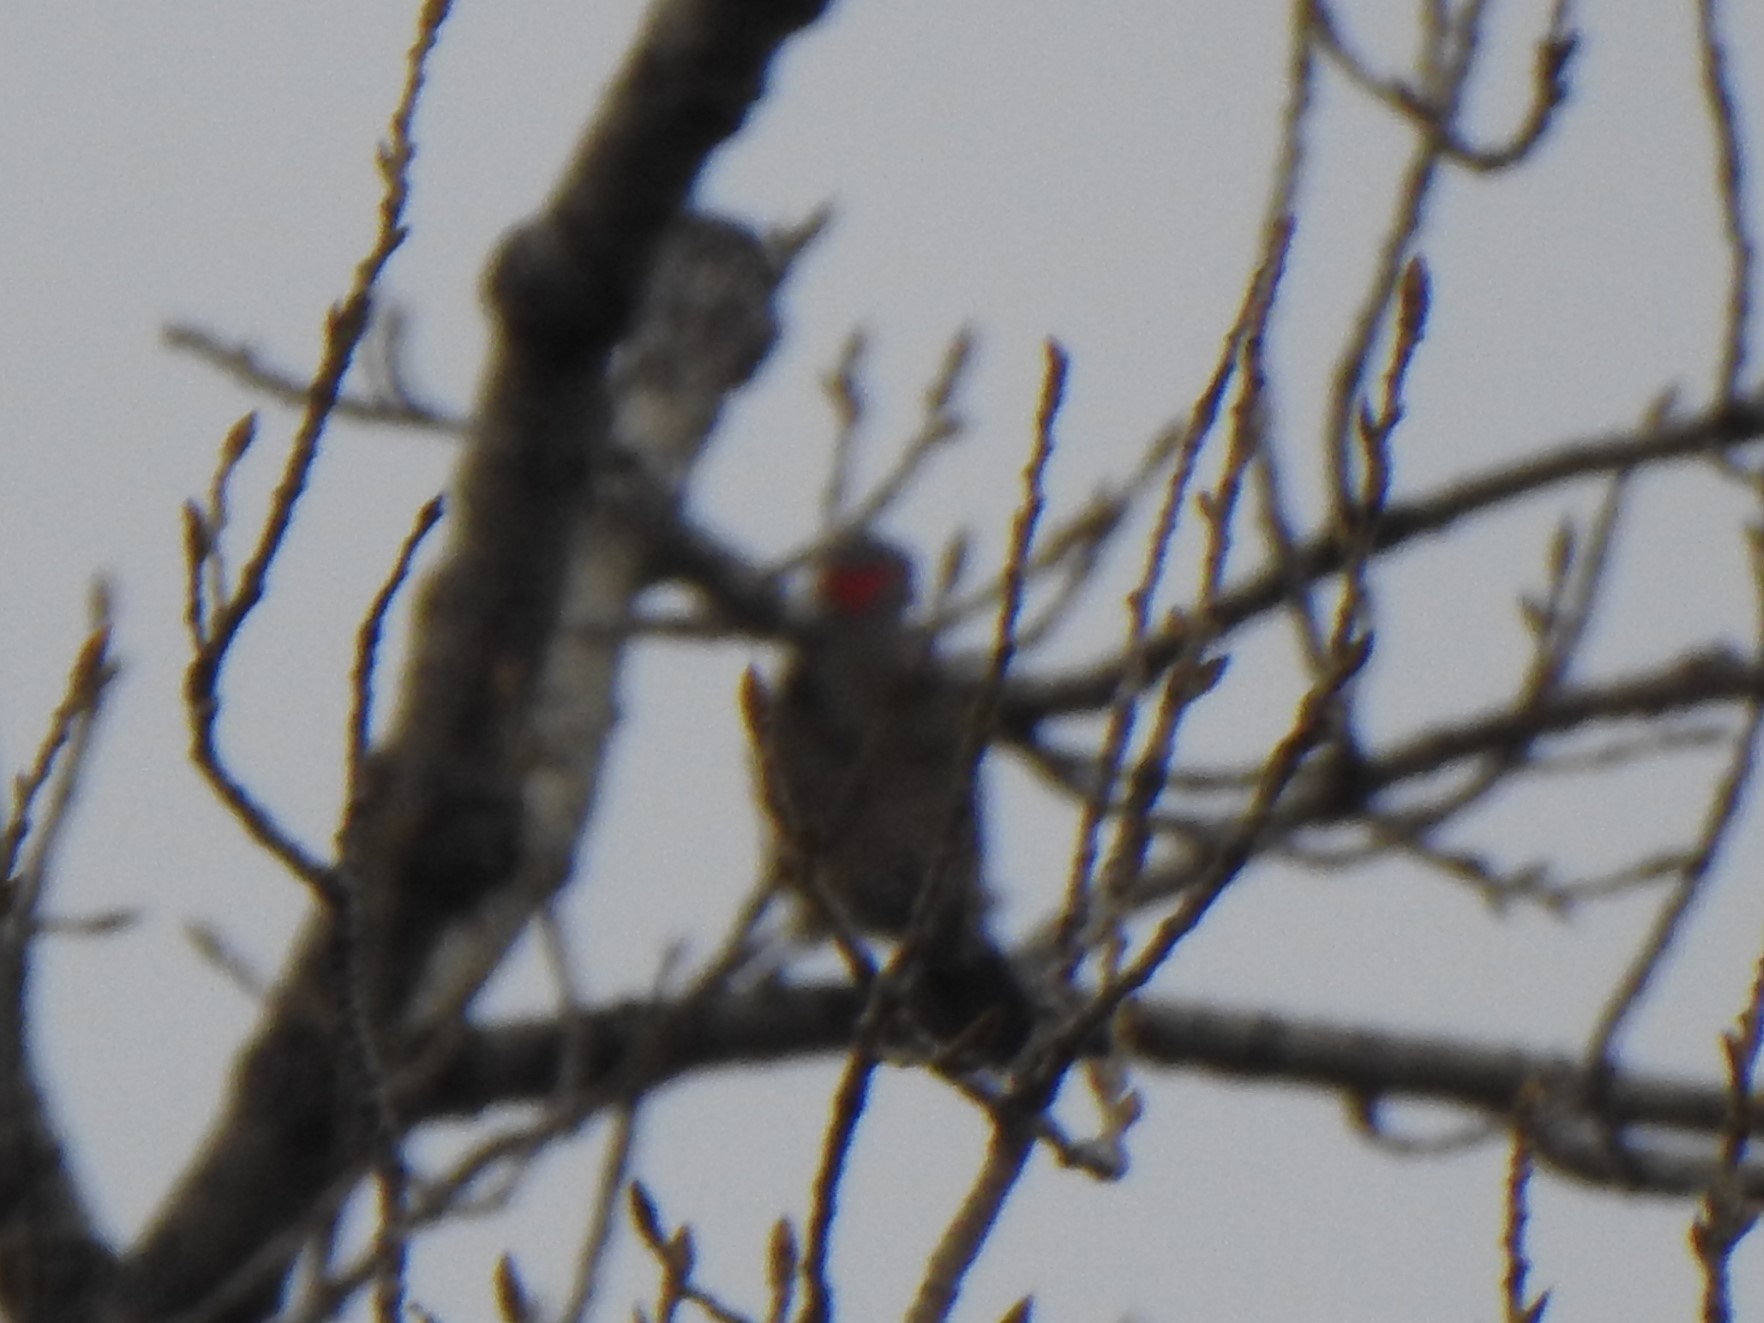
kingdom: Animalia
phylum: Chordata
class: Aves
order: Piciformes
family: Picidae
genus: Colaptes
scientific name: Colaptes auratus
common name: Northern flicker
